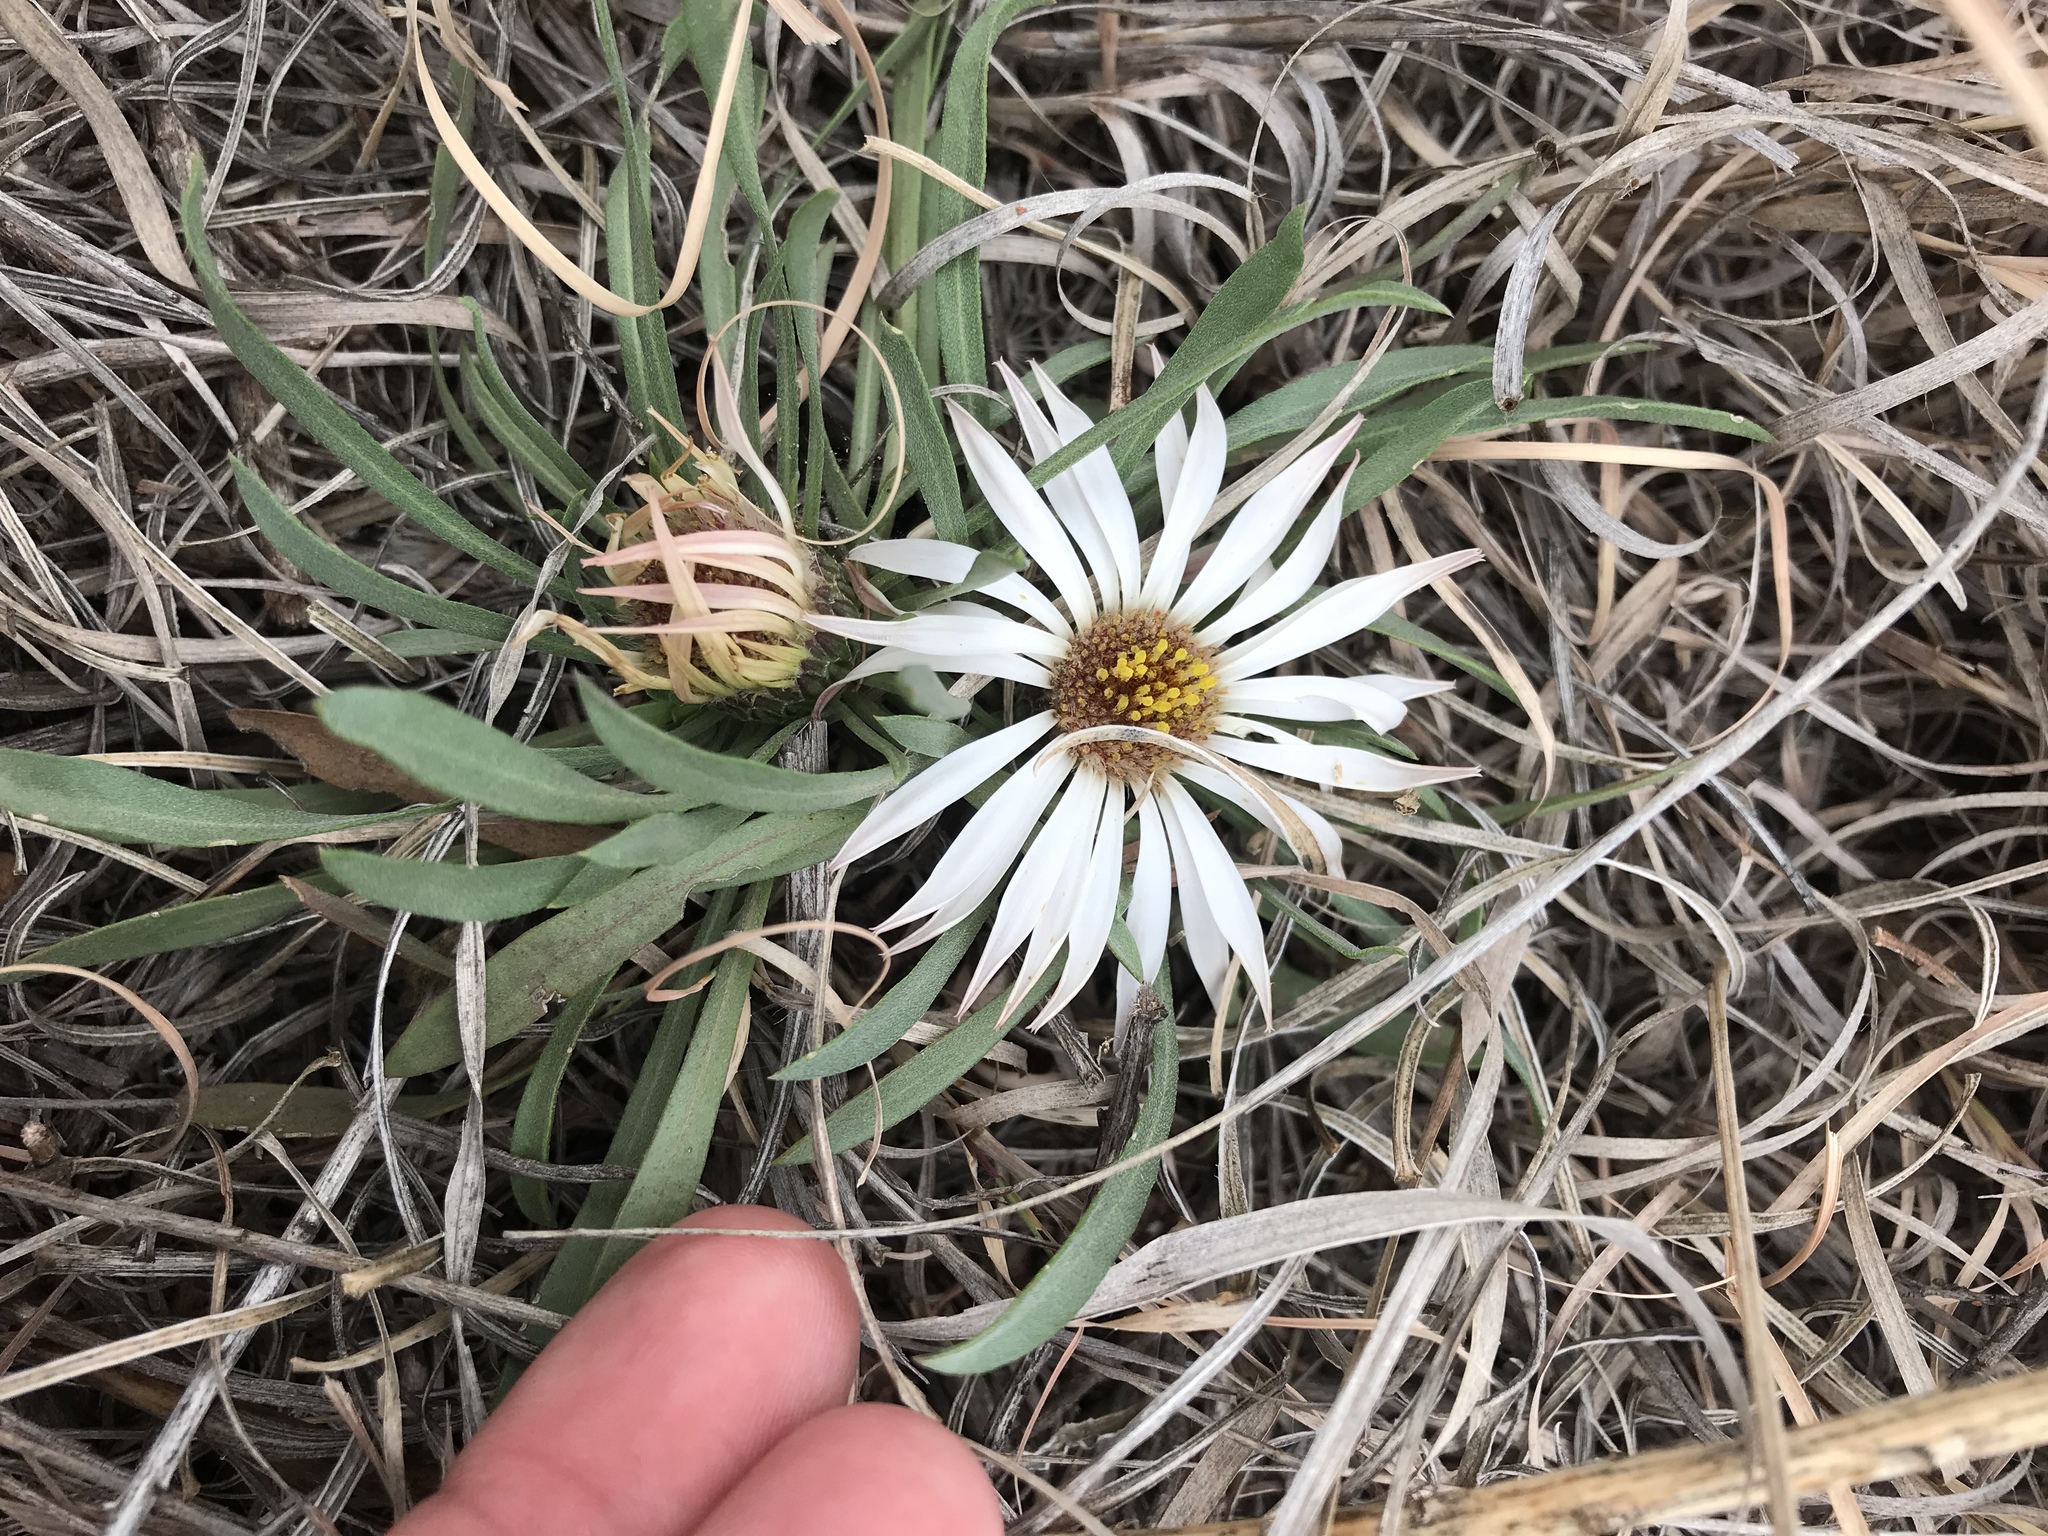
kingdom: Plantae
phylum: Tracheophyta
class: Magnoliopsida
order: Asterales
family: Asteraceae
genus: Townsendia
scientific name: Townsendia exscapa
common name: Dwarf townsendia
